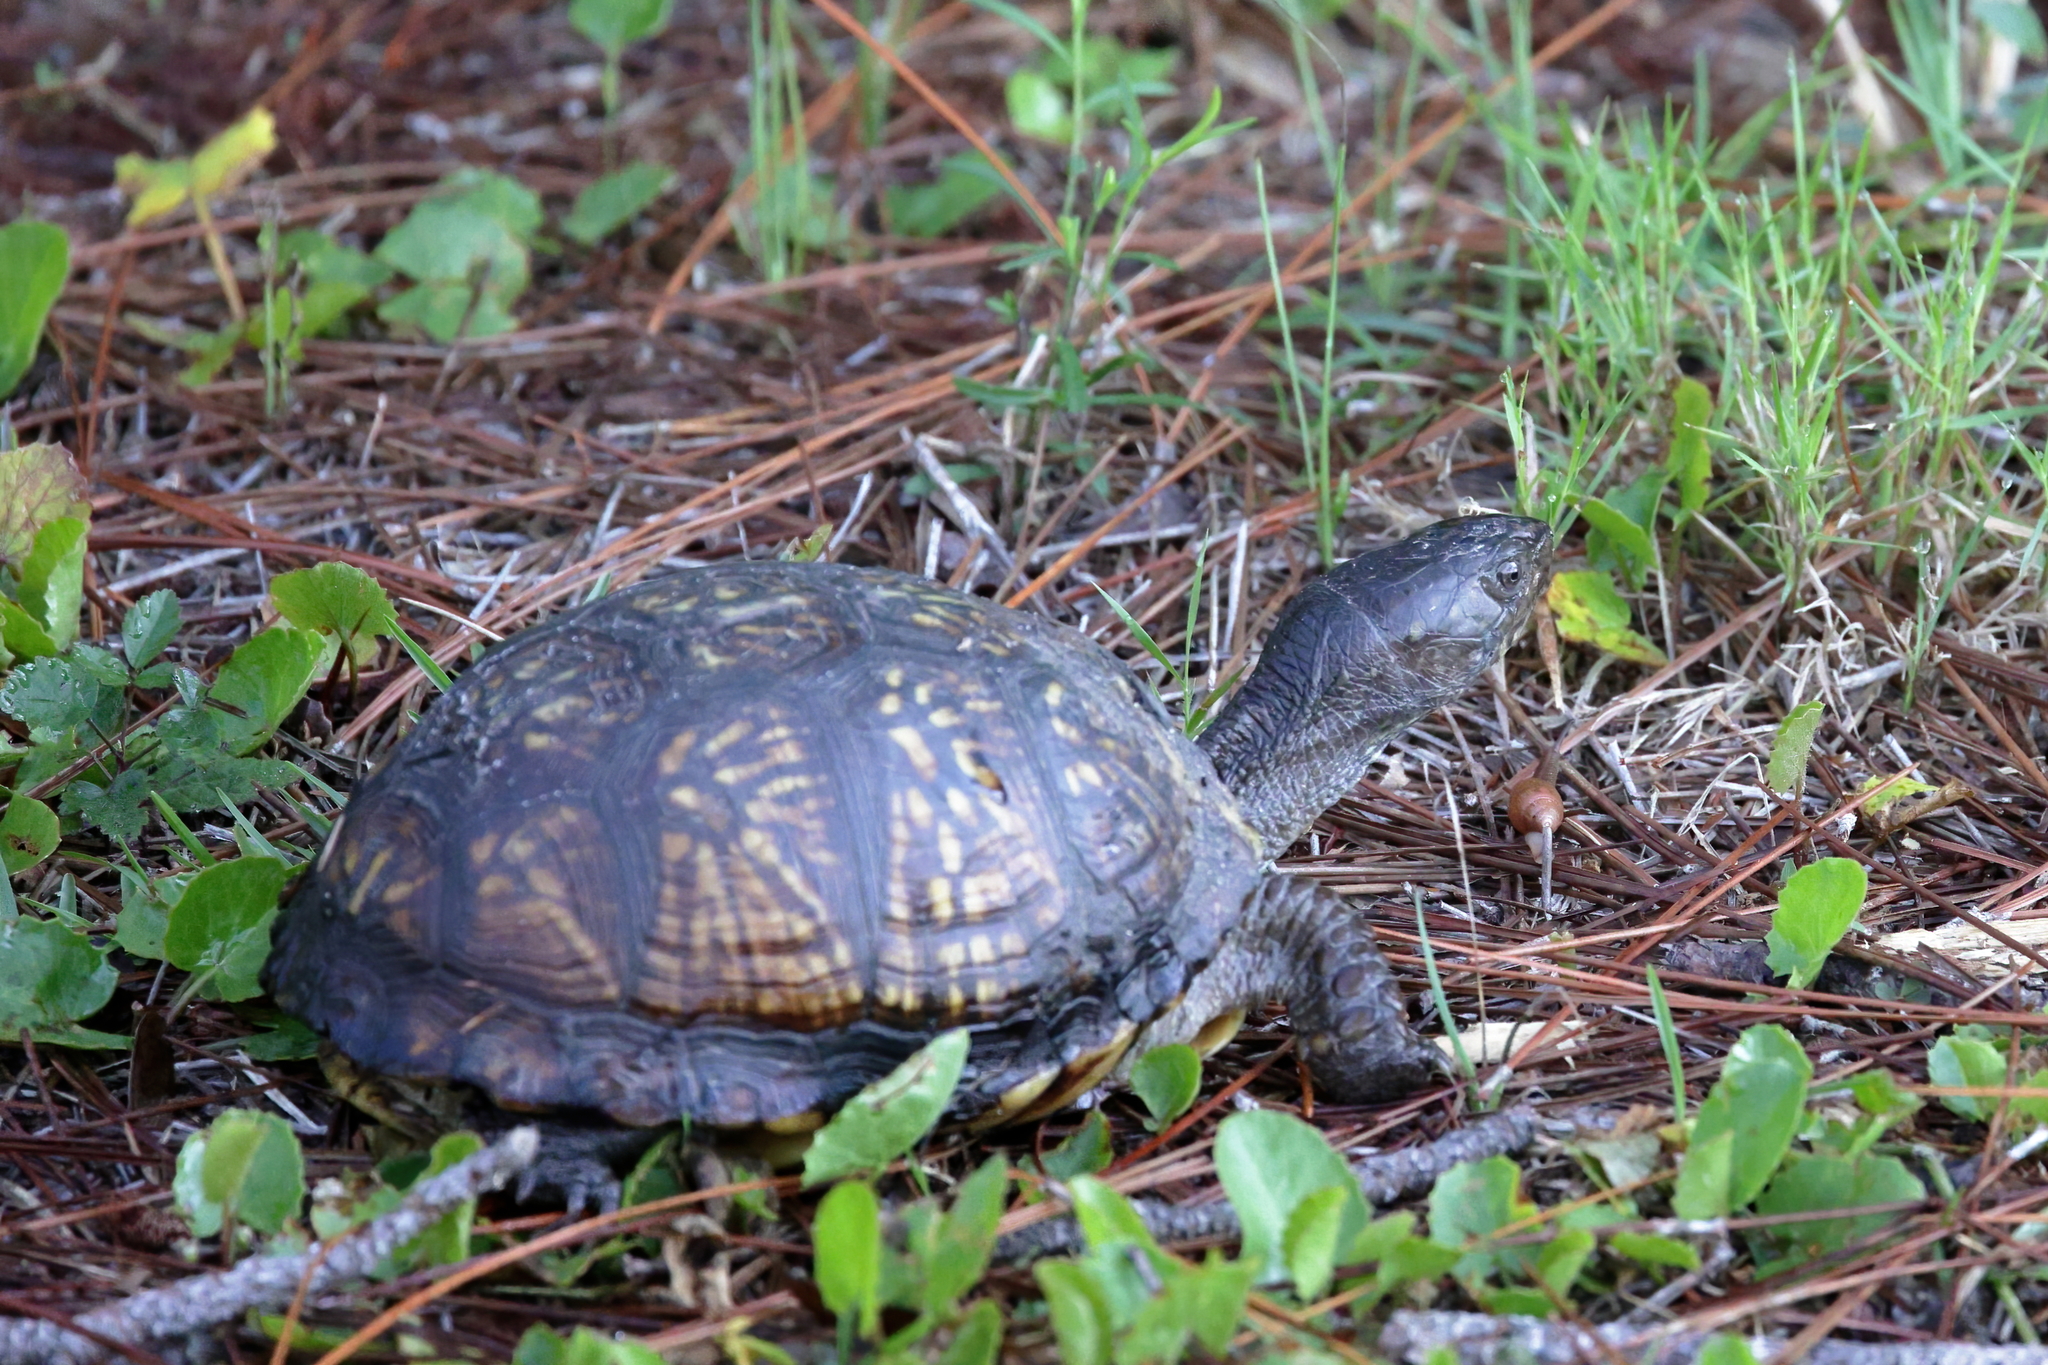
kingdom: Animalia
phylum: Chordata
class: Testudines
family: Emydidae
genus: Terrapene
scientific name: Terrapene carolina
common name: Common box turtle
